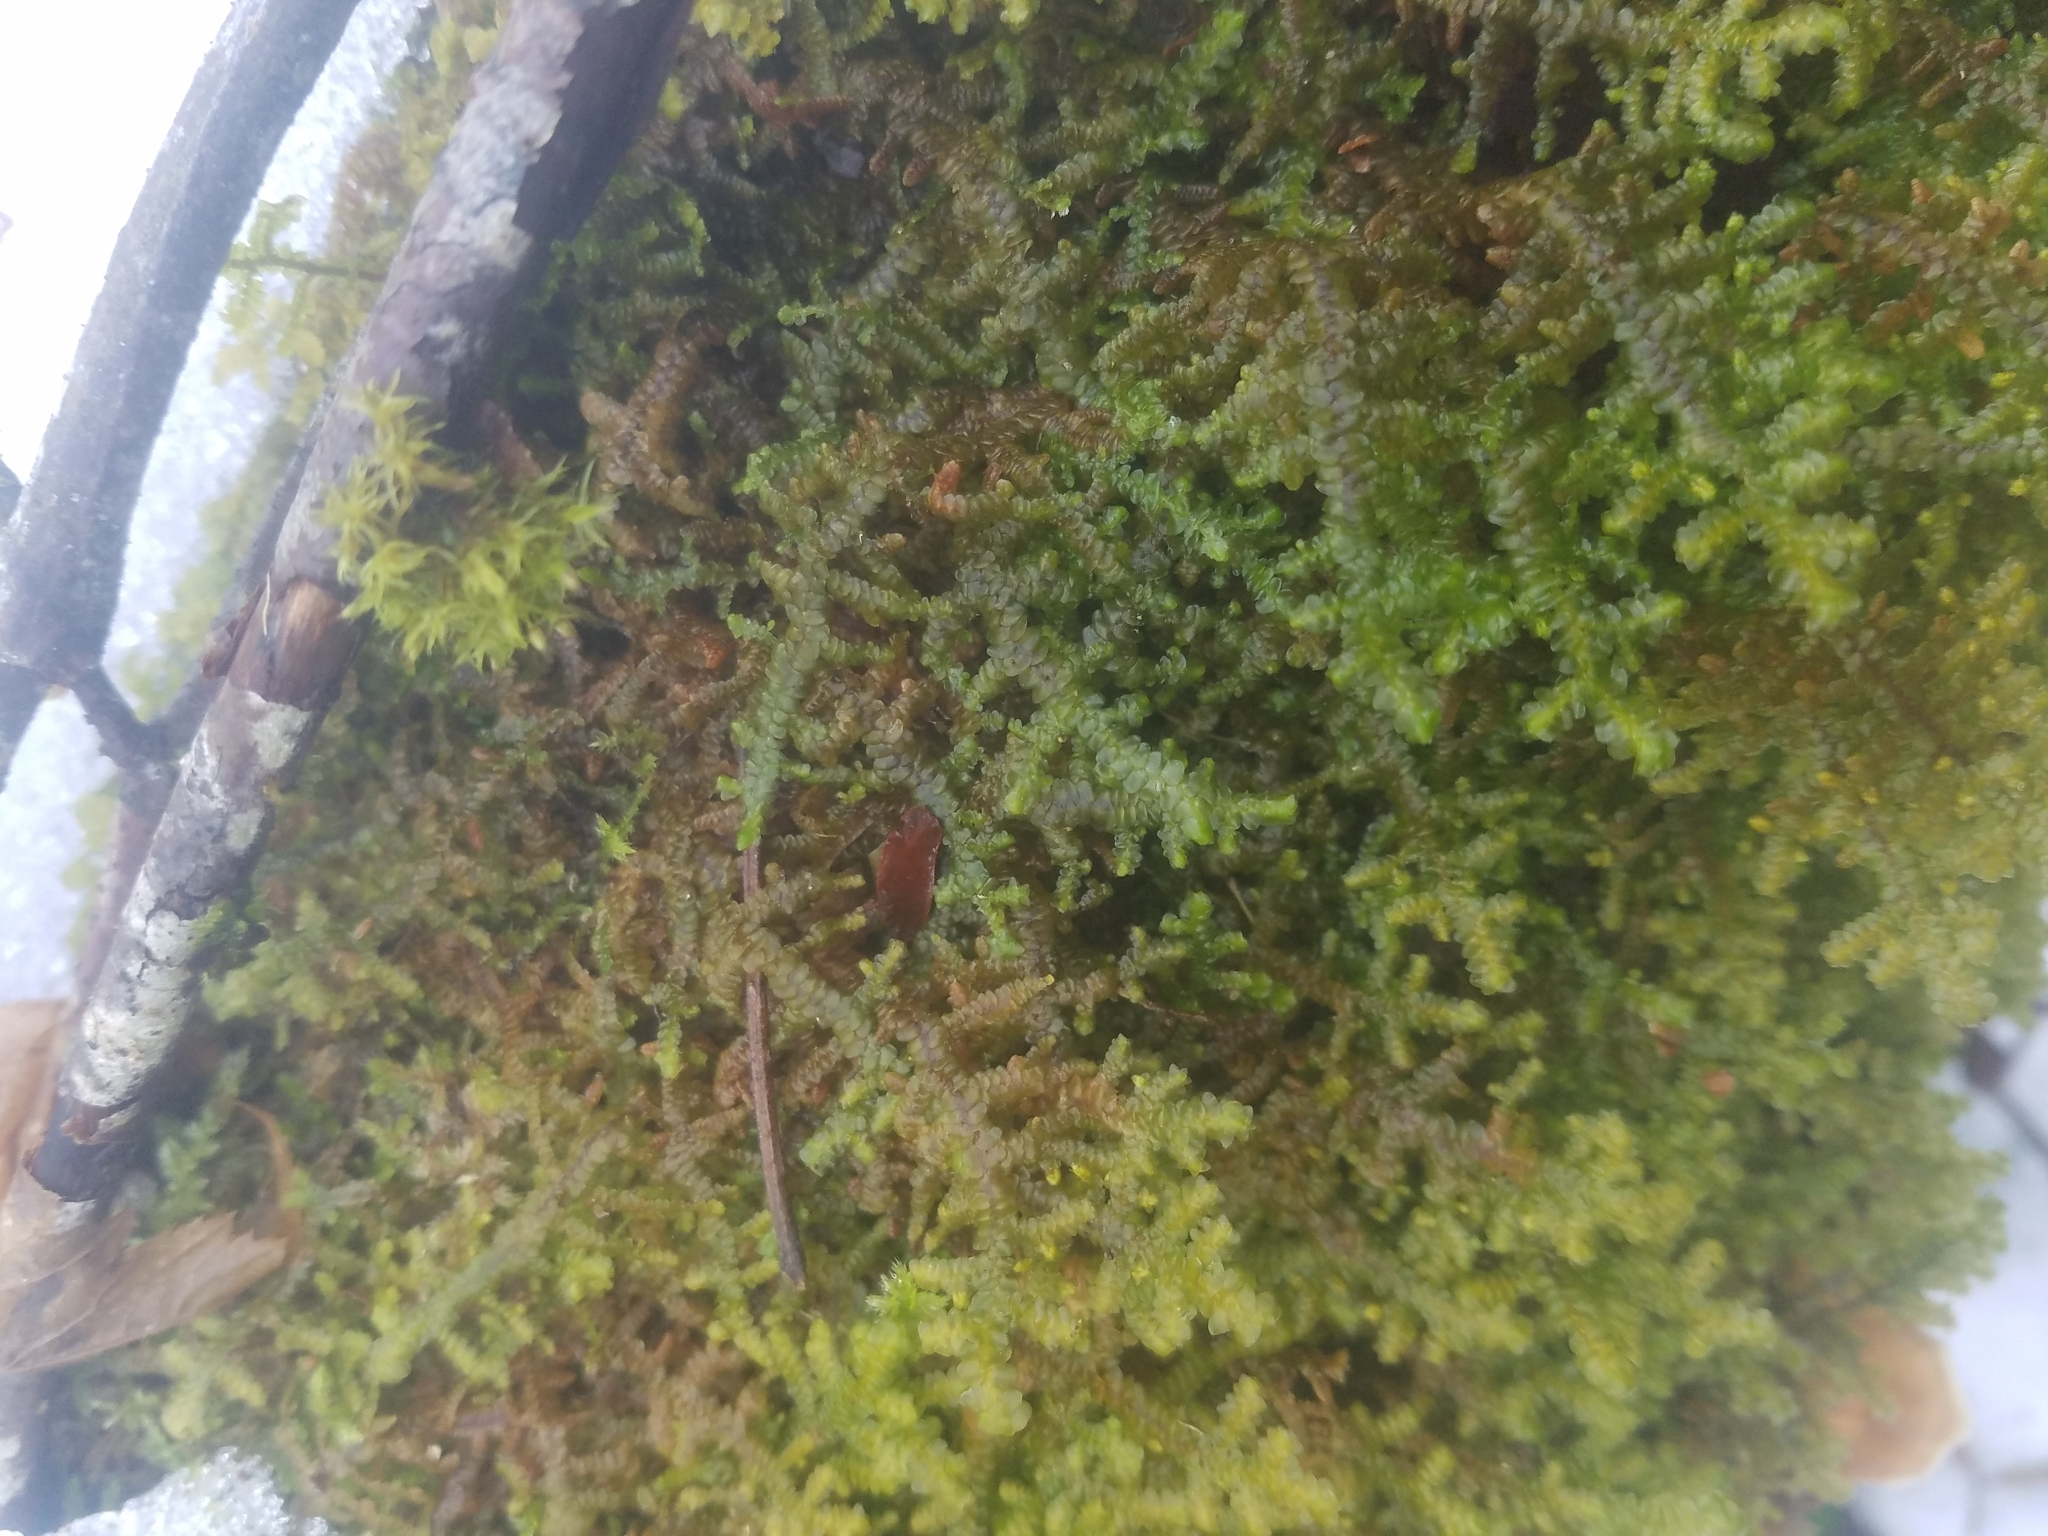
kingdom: Plantae
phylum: Marchantiophyta
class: Jungermanniopsida
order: Porellales
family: Porellaceae
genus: Porella
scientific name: Porella navicularis
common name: Tree ruffle liverwort
